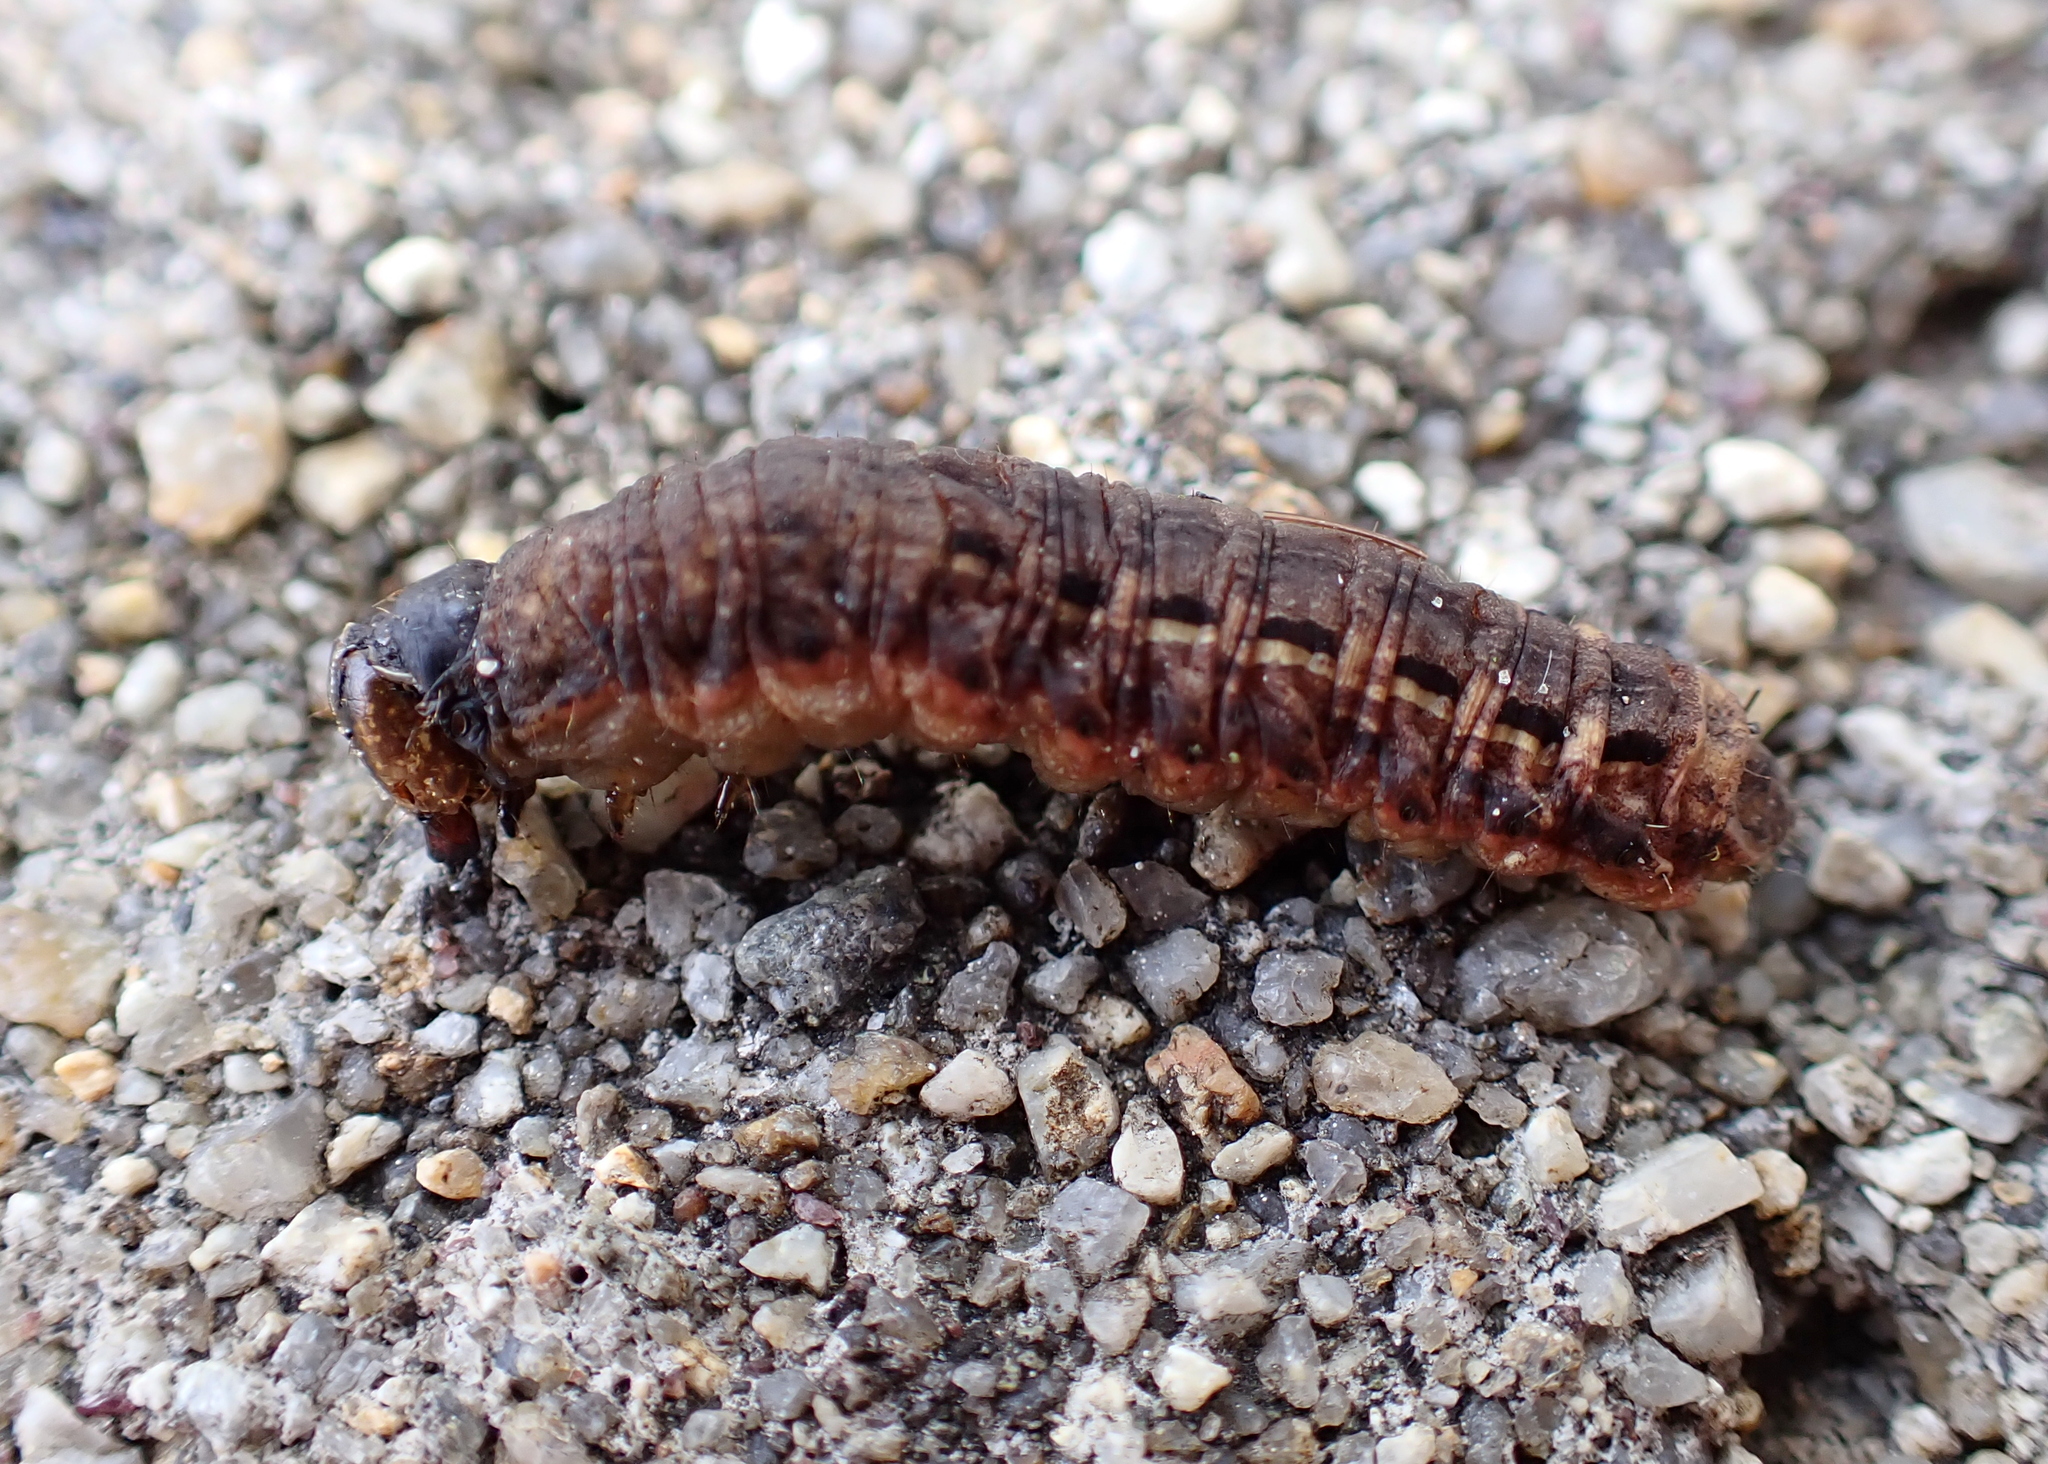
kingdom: Animalia
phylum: Arthropoda
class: Insecta
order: Lepidoptera
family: Noctuidae
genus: Noctua
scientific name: Noctua pronuba
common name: Large yellow underwing
